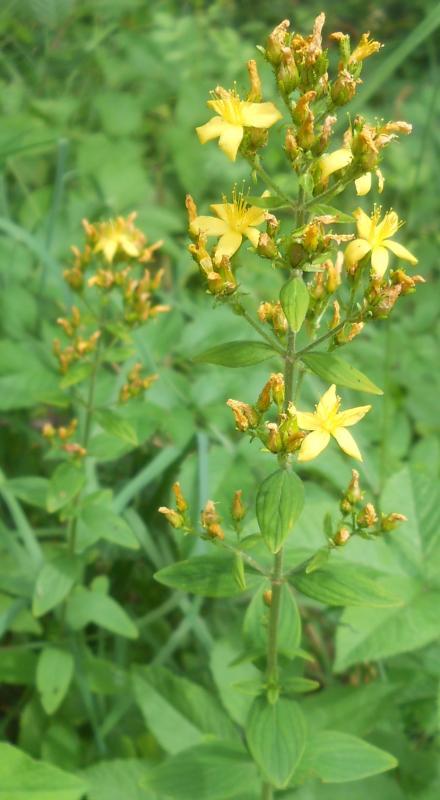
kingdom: Plantae
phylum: Tracheophyta
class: Magnoliopsida
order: Malpighiales
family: Hypericaceae
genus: Hypericum
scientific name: Hypericum hirsutum
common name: Hairy st. john's-wort
